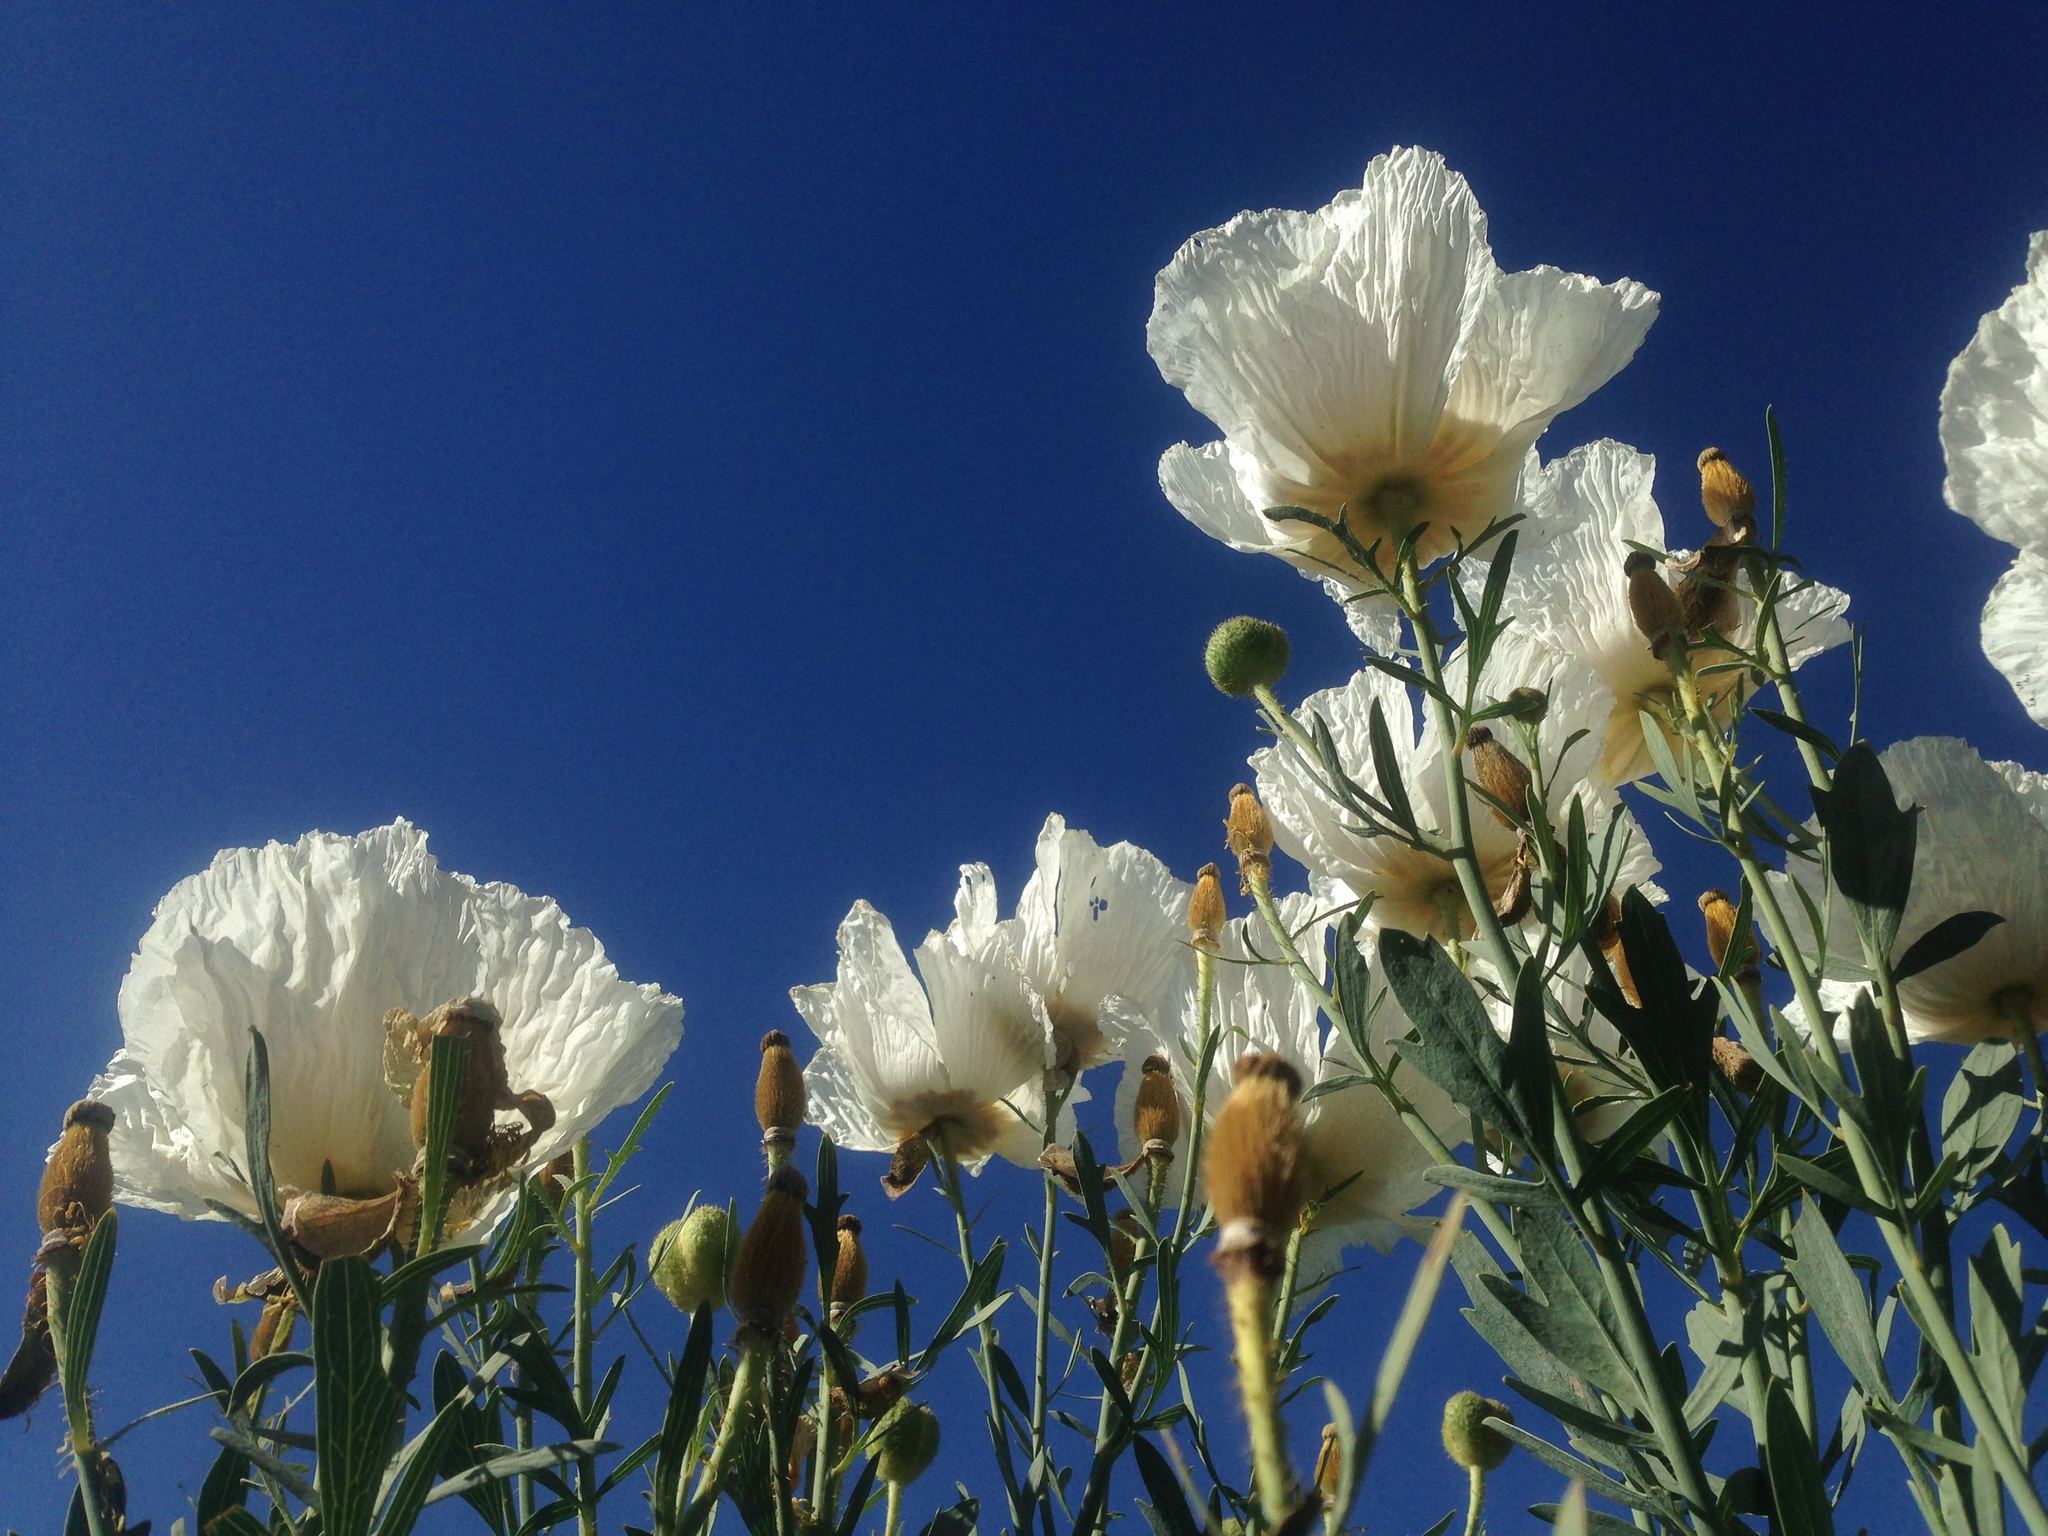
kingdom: Plantae
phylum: Tracheophyta
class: Magnoliopsida
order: Ranunculales
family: Papaveraceae
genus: Romneya
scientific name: Romneya trichocalyx
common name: Hairy matilija-poppy
